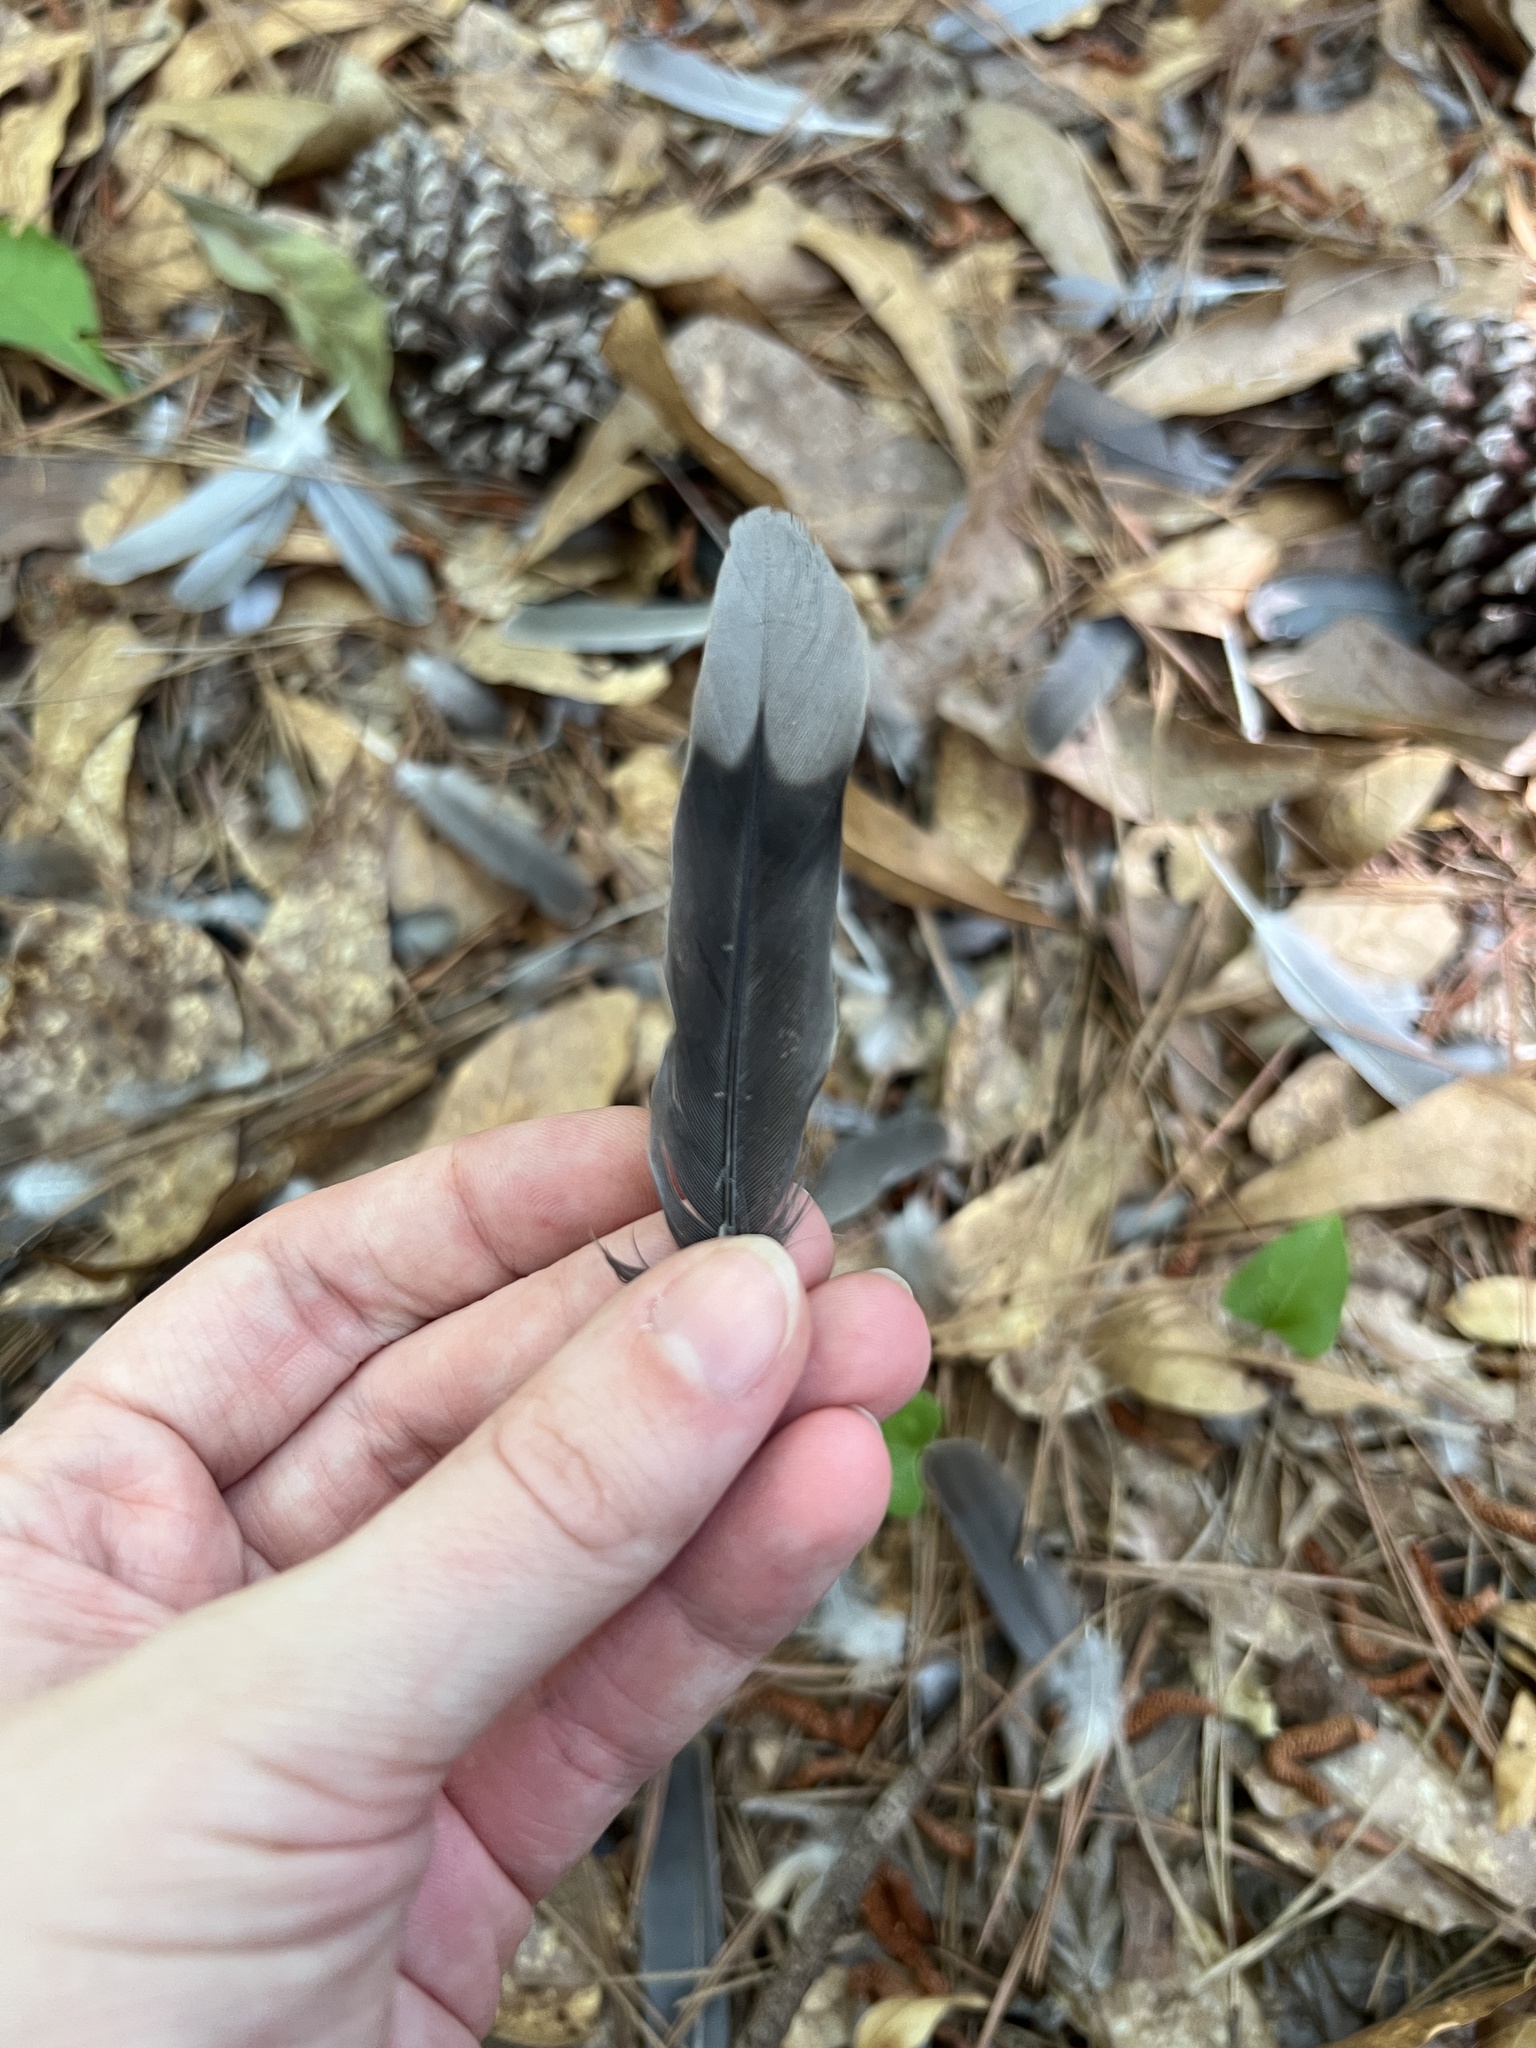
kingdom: Animalia
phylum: Chordata
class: Aves
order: Columbiformes
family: Columbidae
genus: Zenaida
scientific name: Zenaida macroura
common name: Mourning dove
